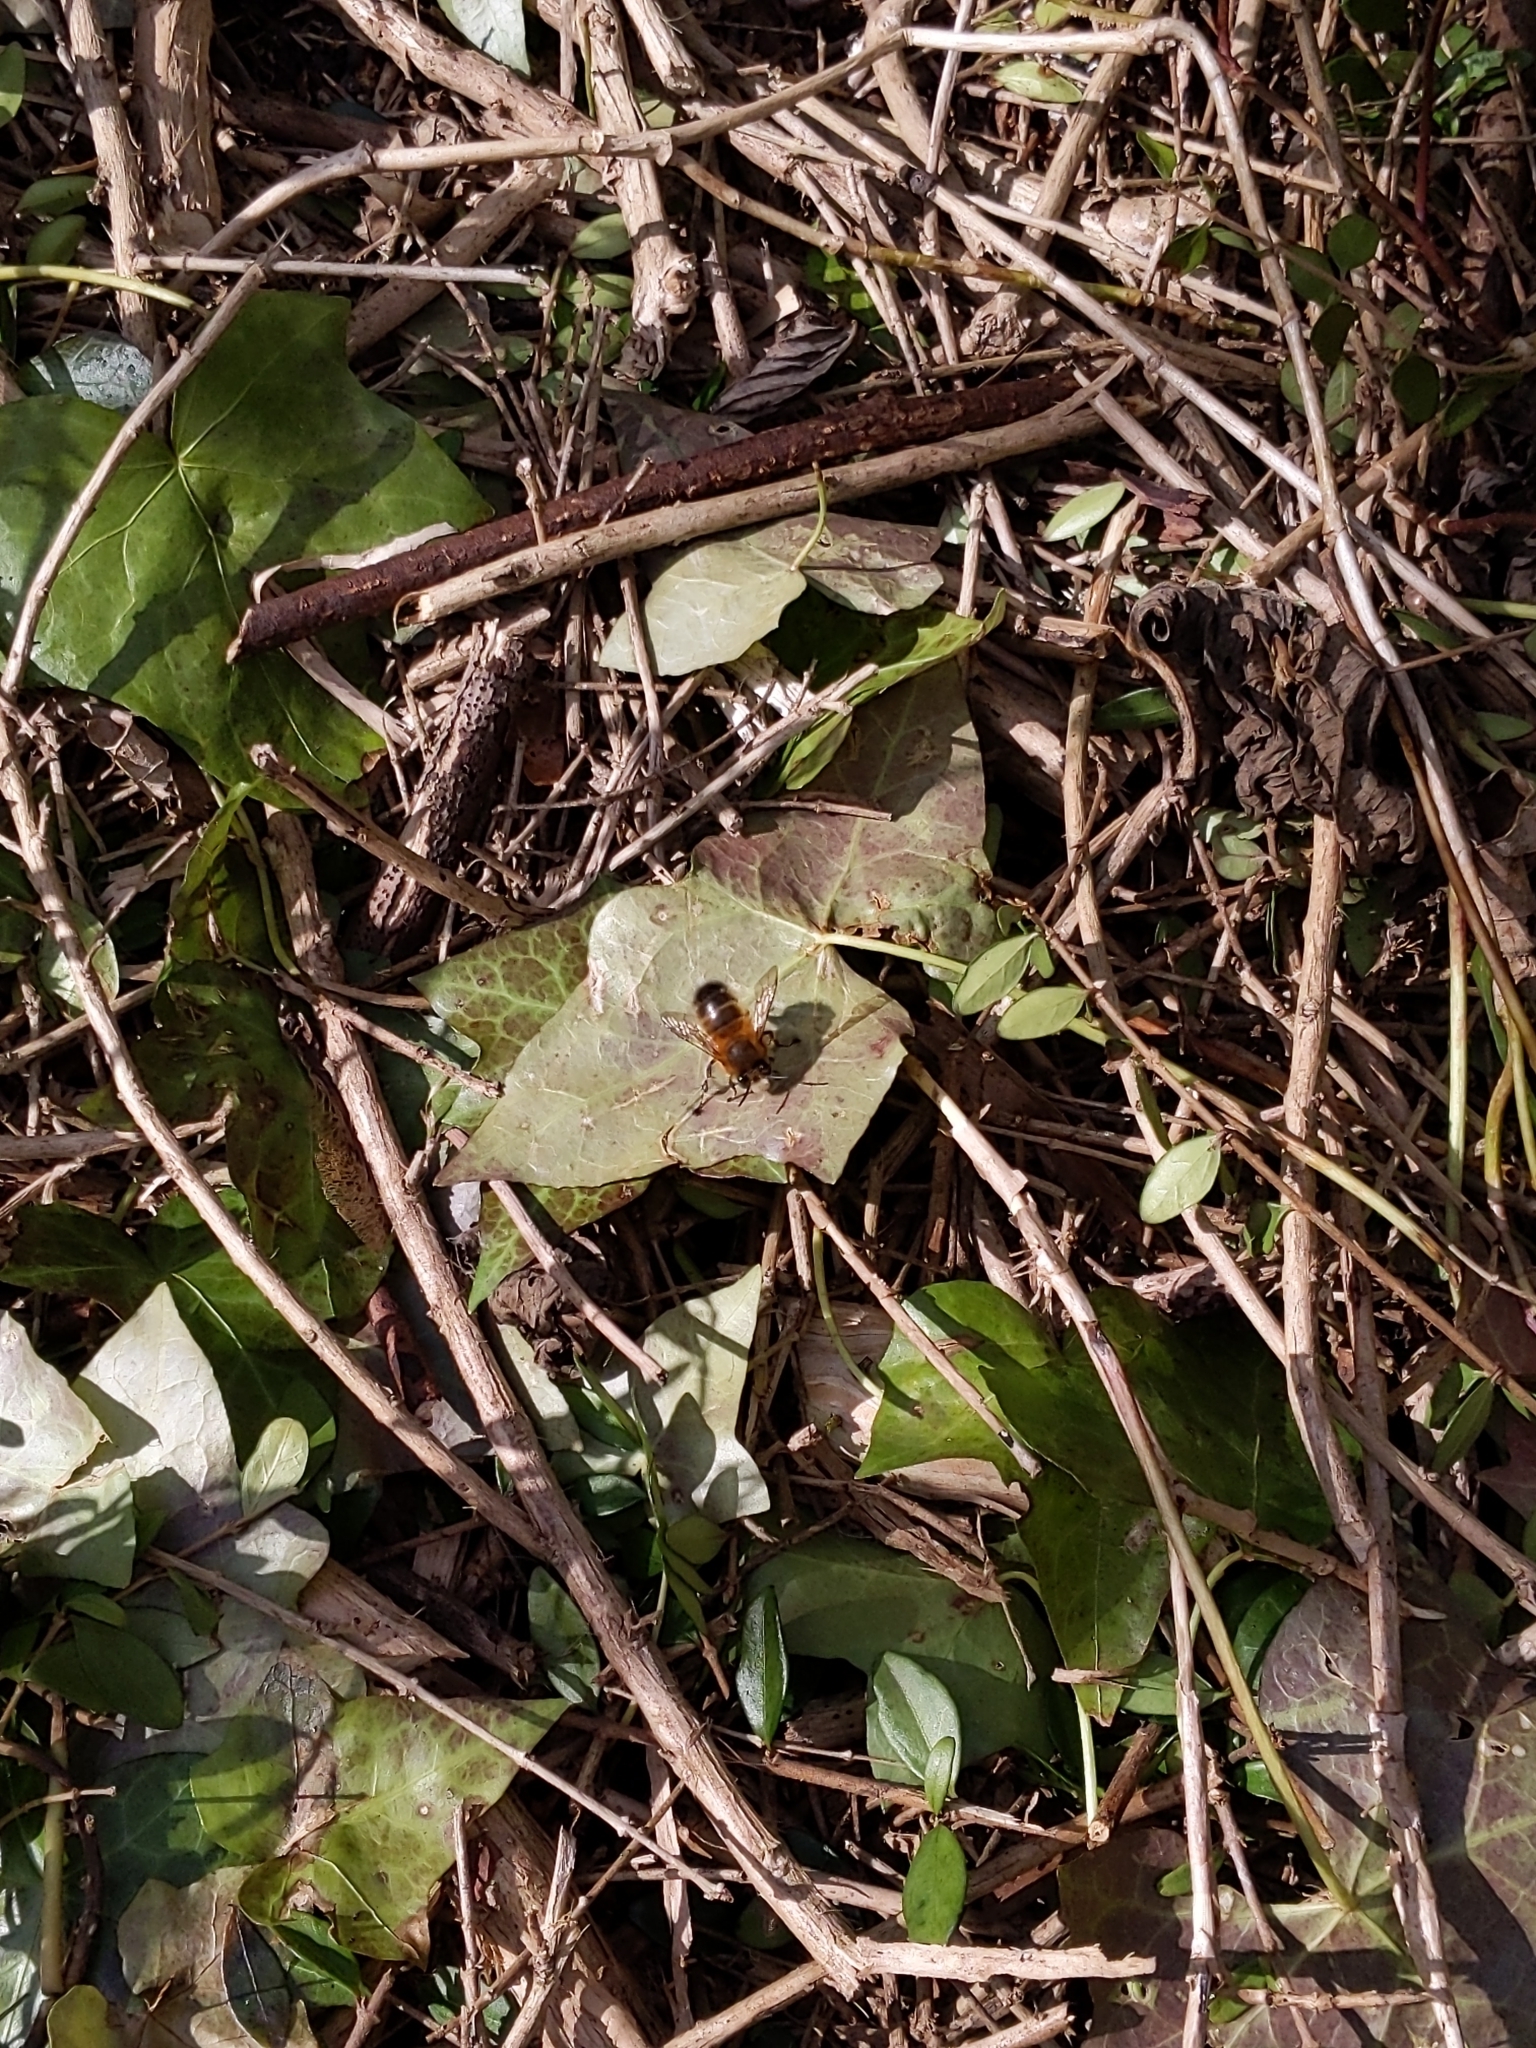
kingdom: Animalia
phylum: Arthropoda
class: Insecta
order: Hymenoptera
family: Apidae
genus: Anthophora
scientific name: Anthophora plumipes
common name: Hairy-footed flower bee
